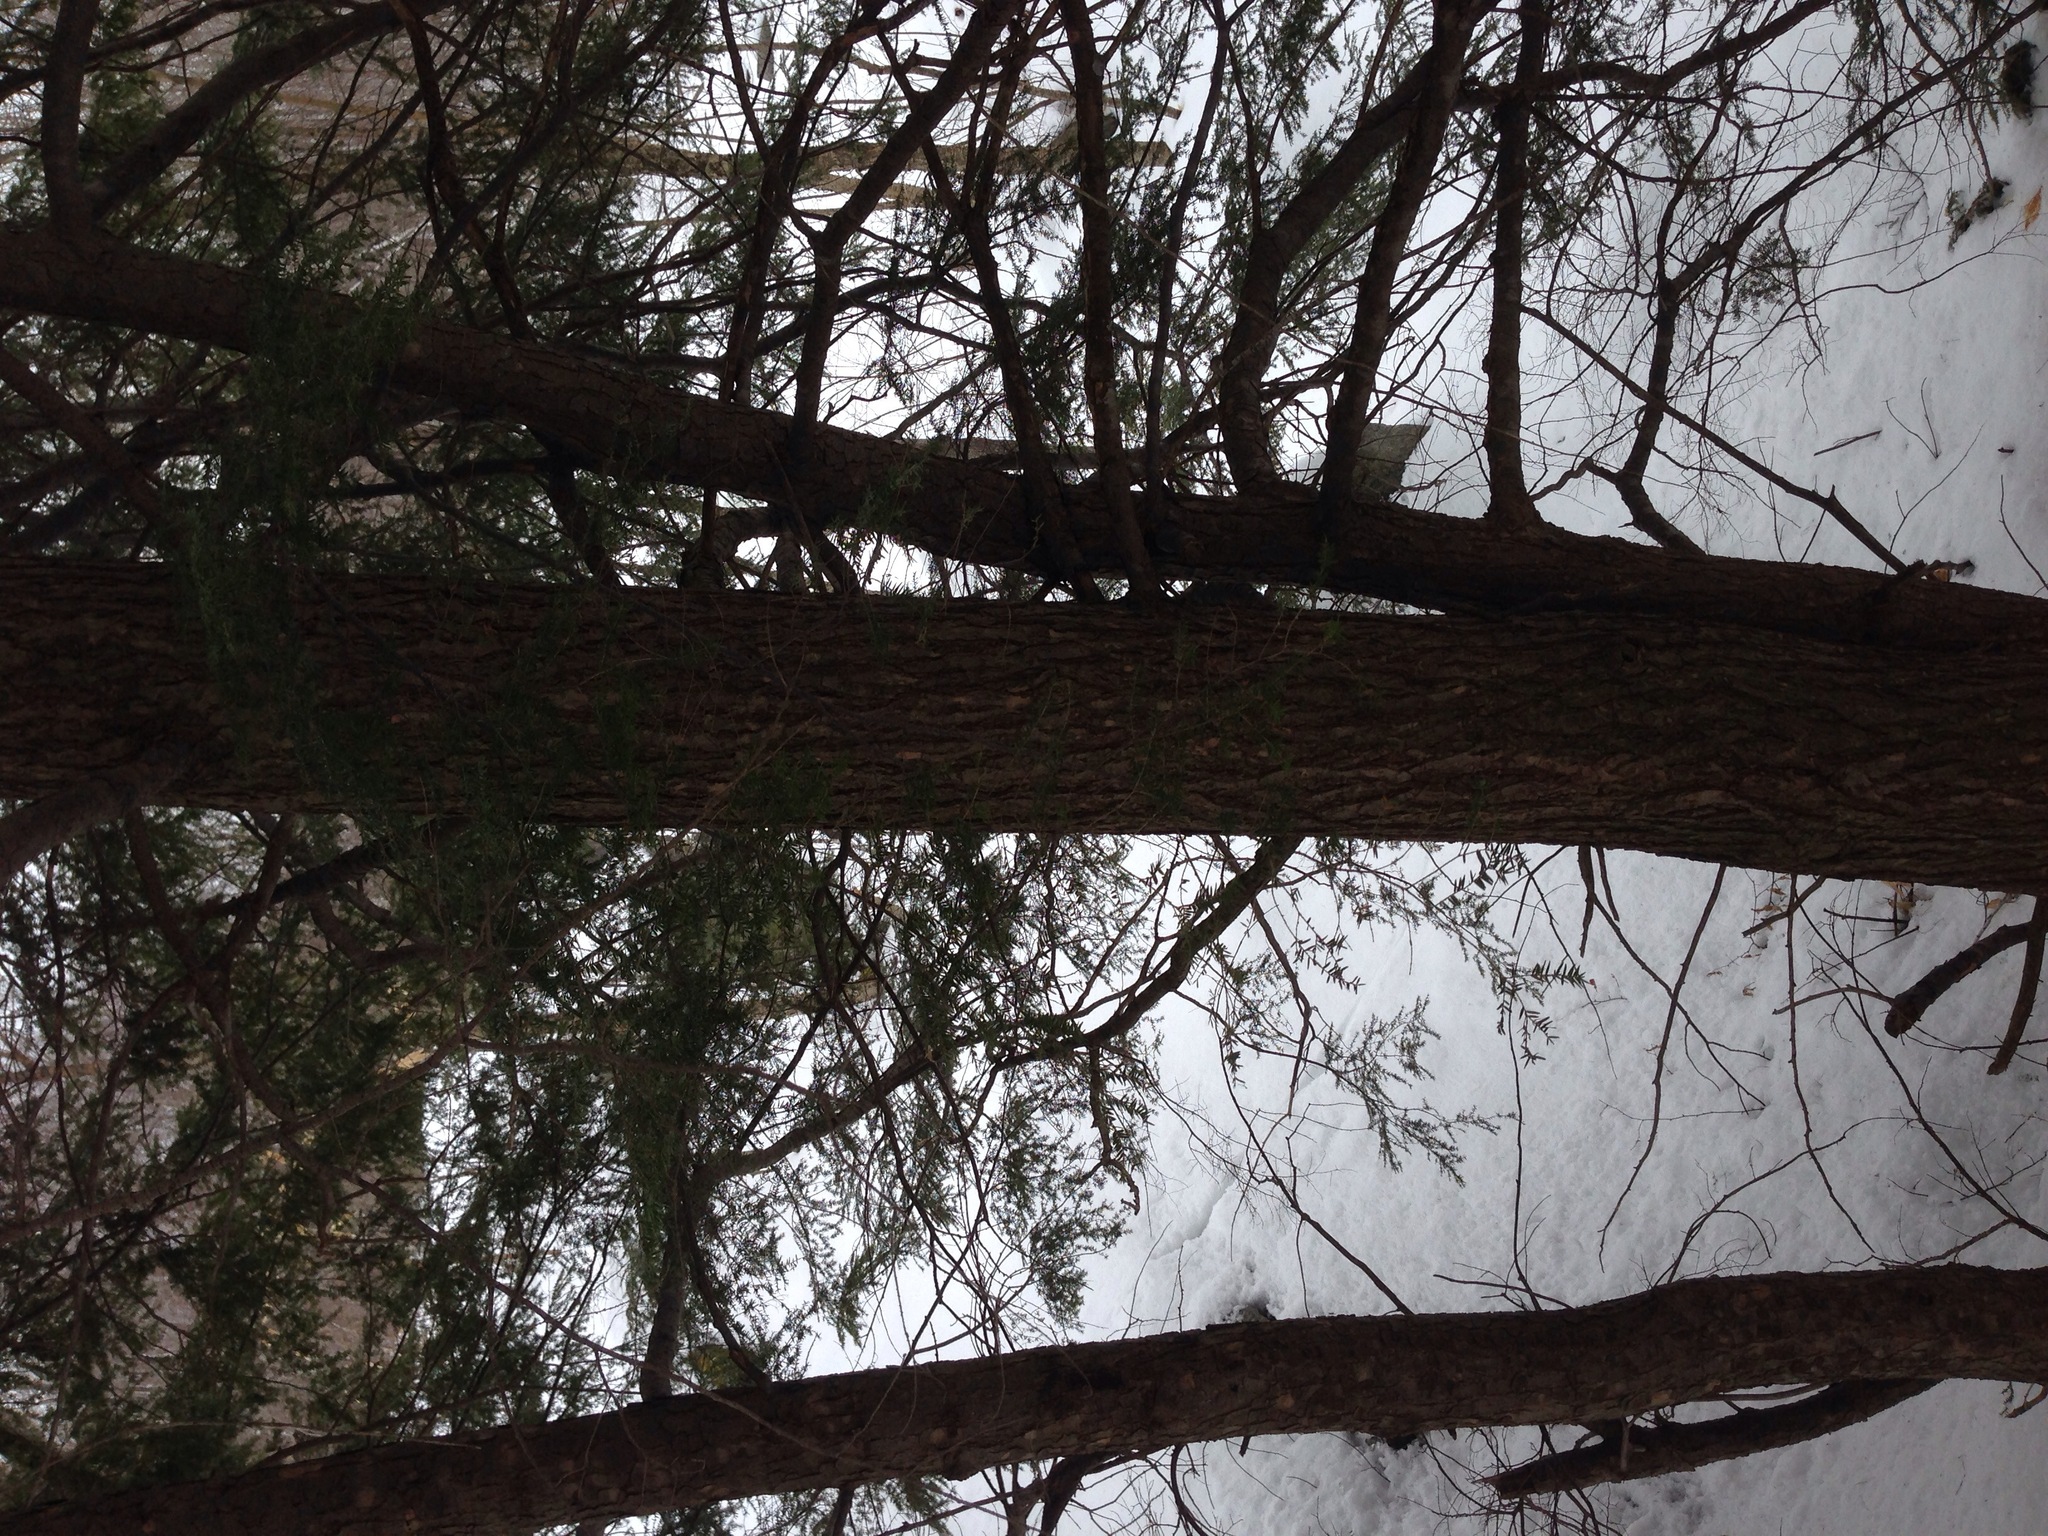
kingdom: Plantae
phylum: Tracheophyta
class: Pinopsida
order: Pinales
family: Pinaceae
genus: Tsuga
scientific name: Tsuga canadensis
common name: Eastern hemlock
